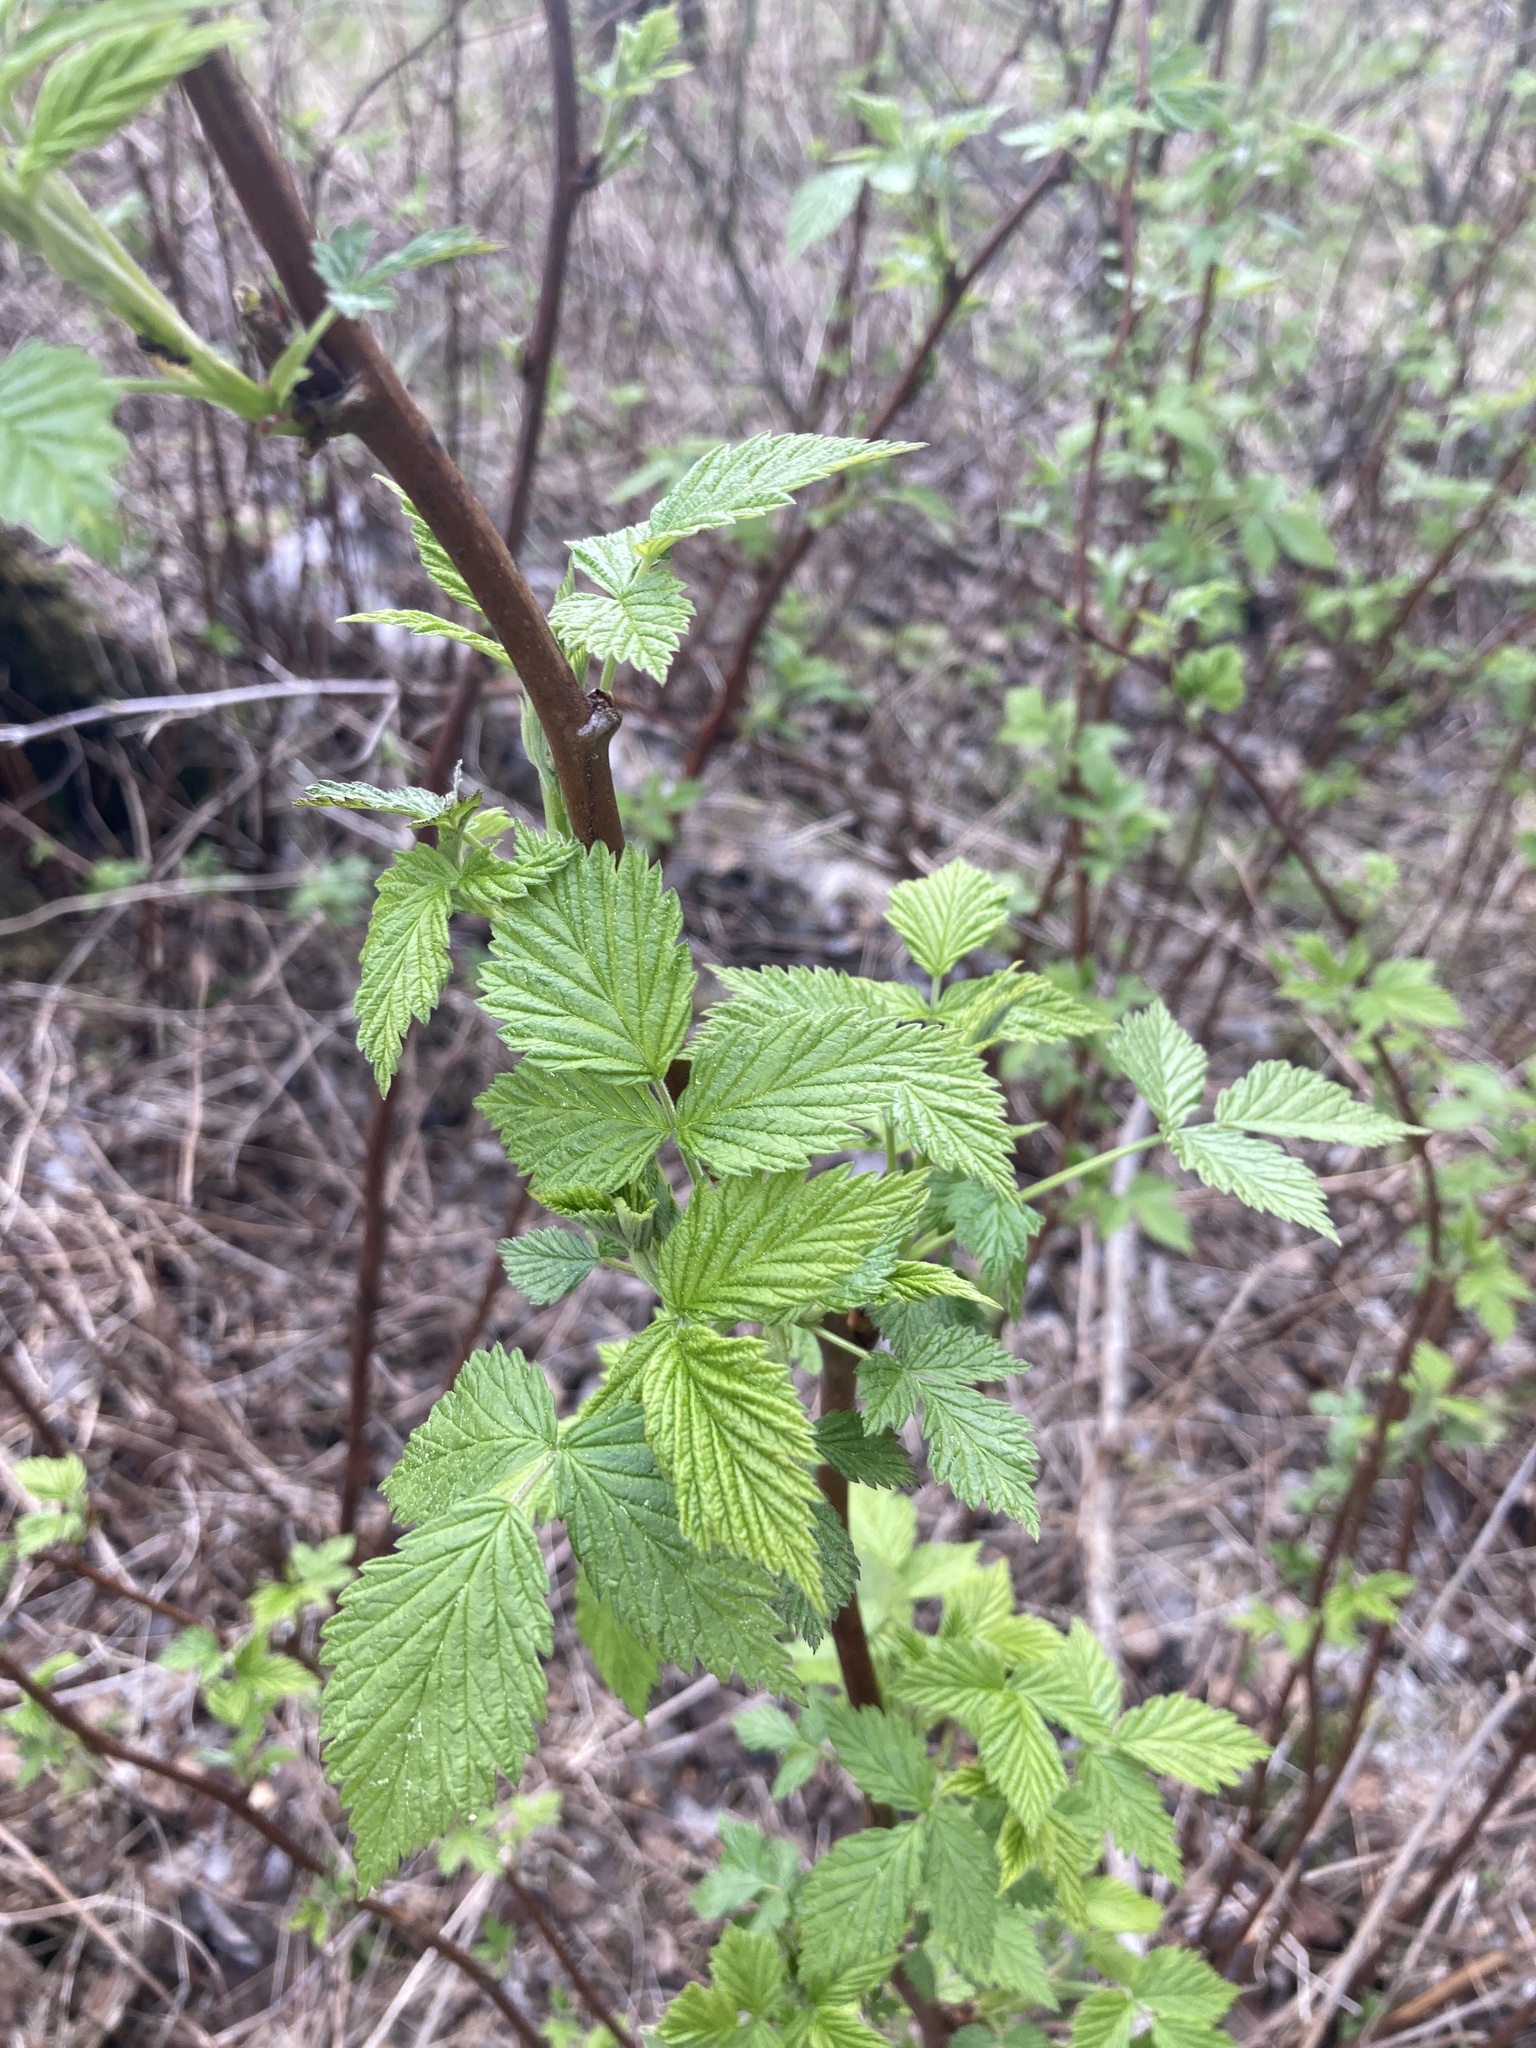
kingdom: Plantae
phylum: Tracheophyta
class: Magnoliopsida
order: Rosales
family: Rosaceae
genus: Rubus
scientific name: Rubus idaeus
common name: Raspberry
